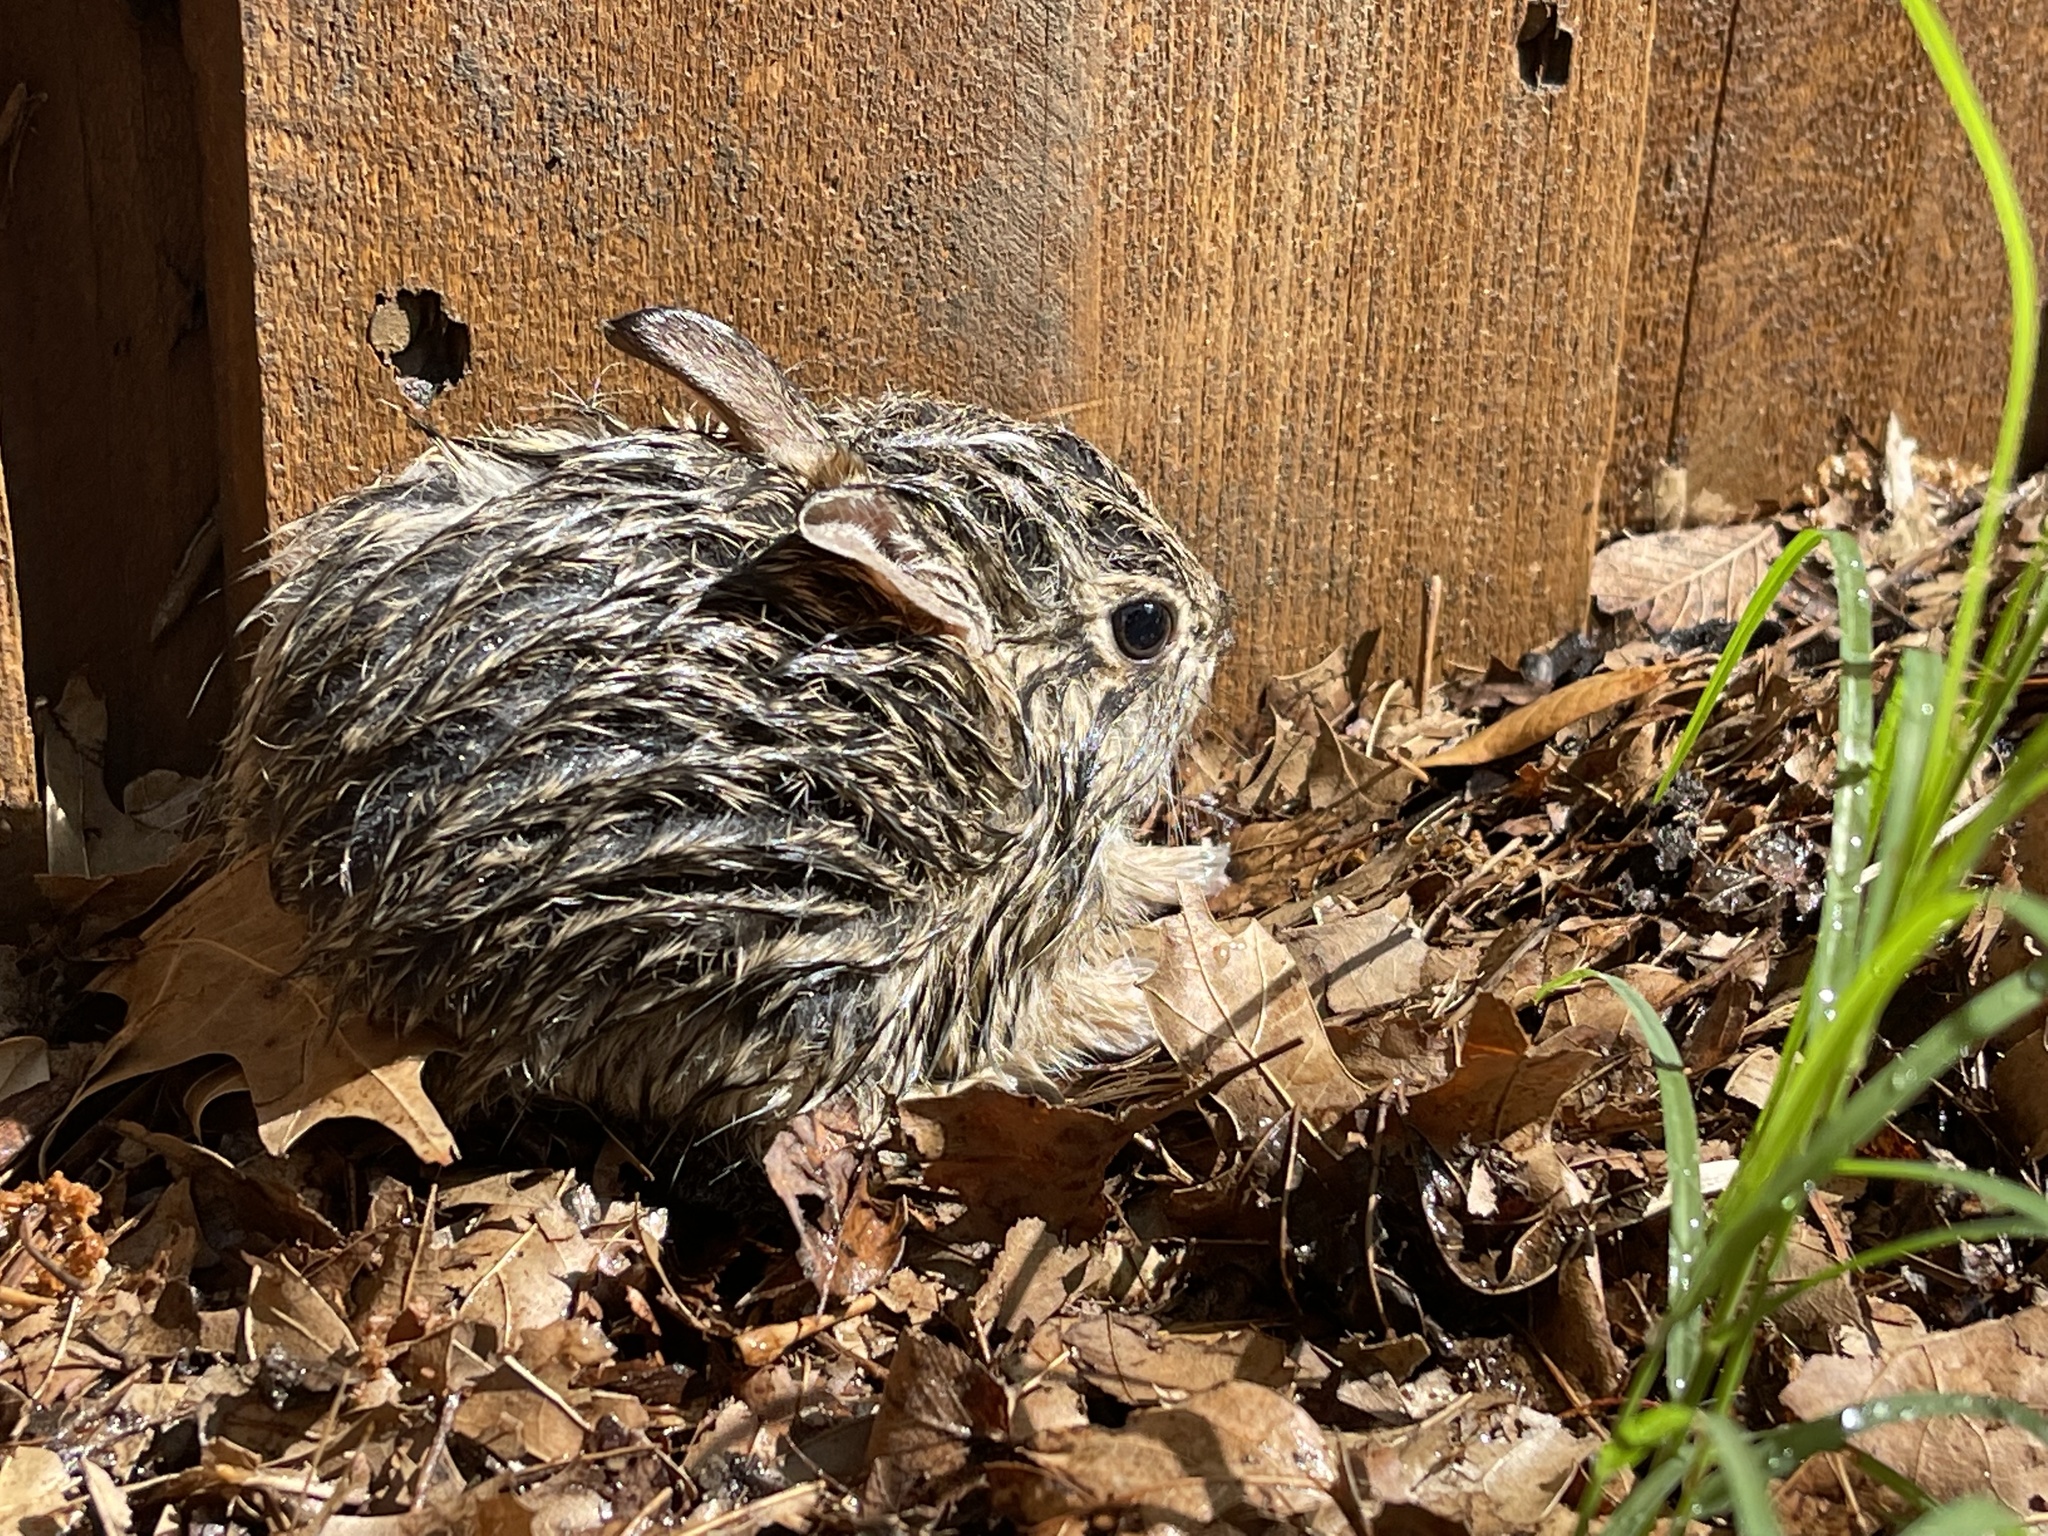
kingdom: Animalia
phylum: Chordata
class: Mammalia
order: Lagomorpha
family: Leporidae
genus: Sylvilagus
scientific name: Sylvilagus floridanus
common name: Eastern cottontail
